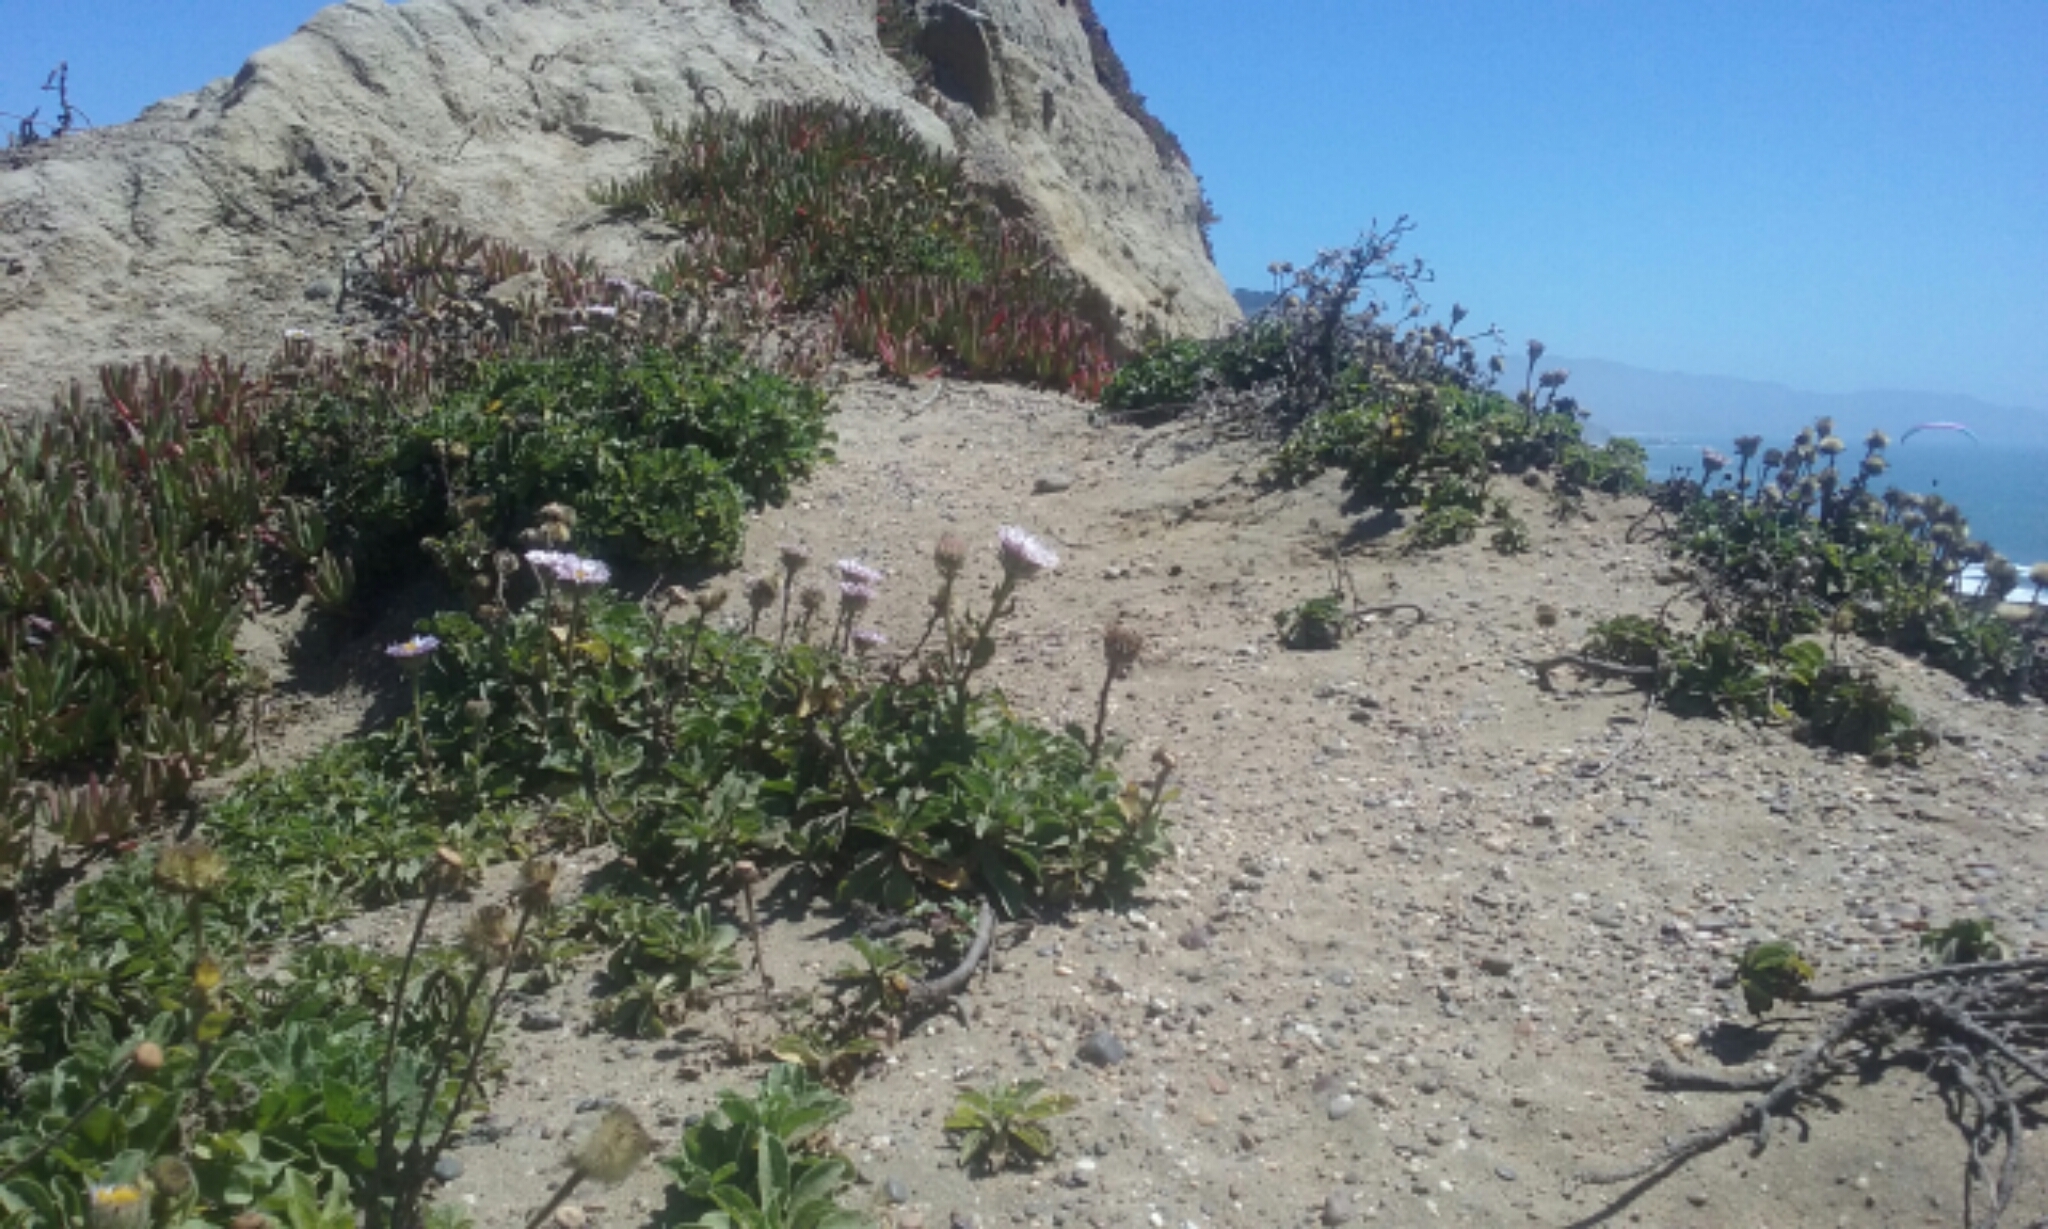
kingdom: Plantae
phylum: Tracheophyta
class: Magnoliopsida
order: Asterales
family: Asteraceae
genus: Erigeron
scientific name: Erigeron glaucus
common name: Seaside daisy
